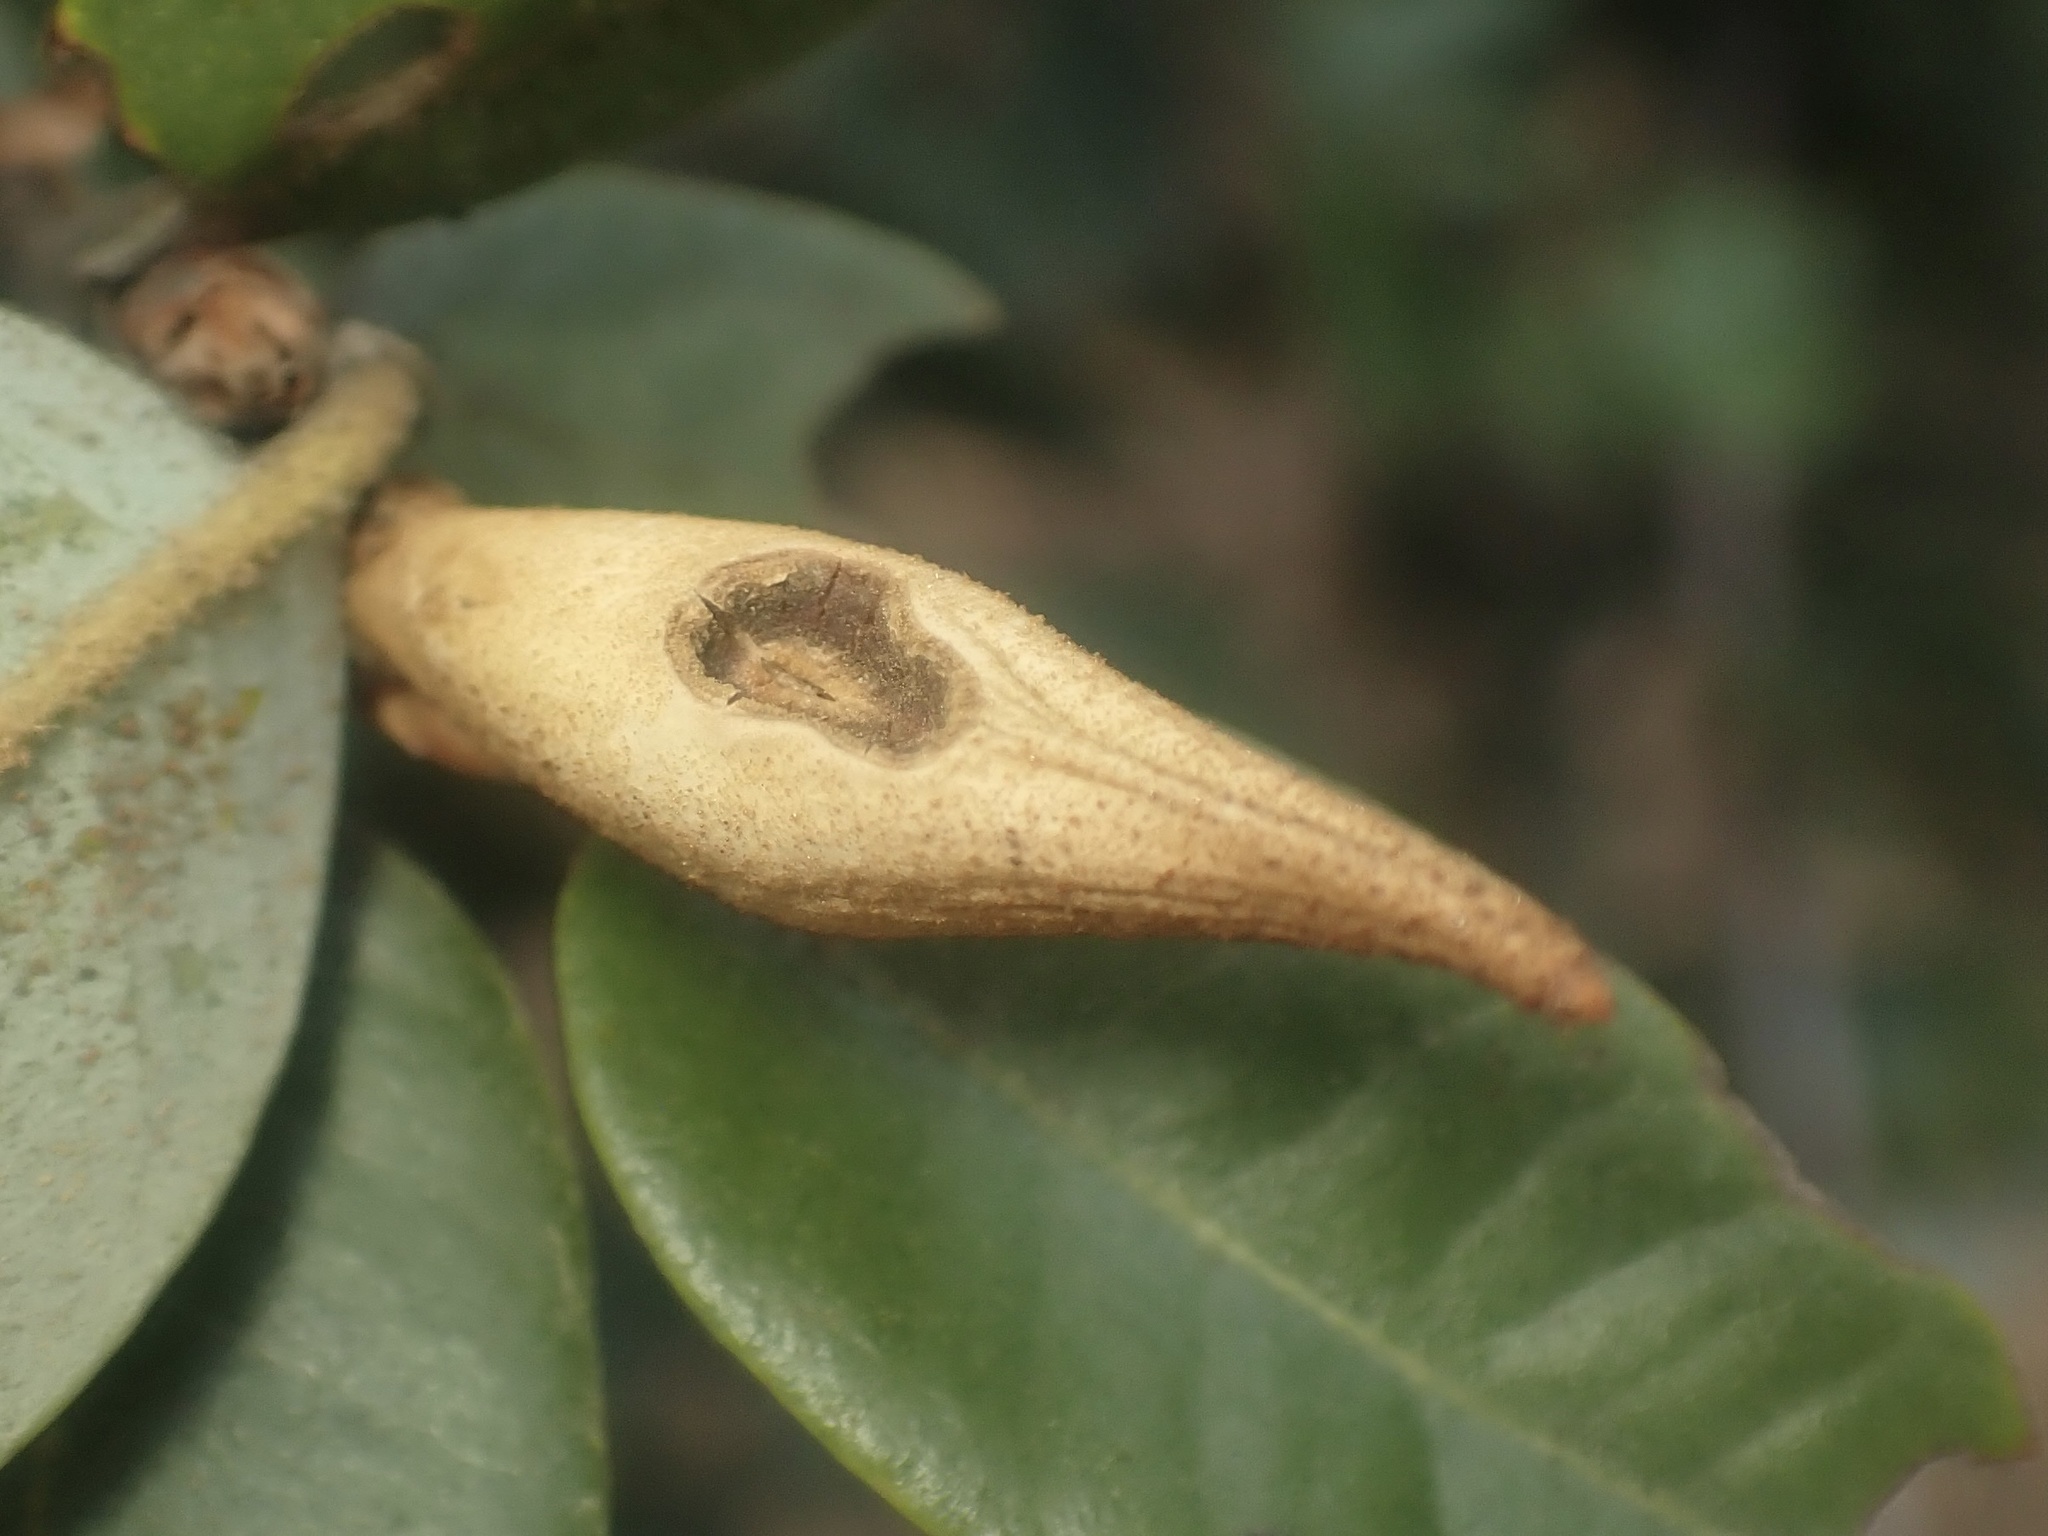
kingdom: Animalia
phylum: Arthropoda
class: Insecta
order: Hymenoptera
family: Cynipidae
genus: Heteroecus
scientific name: Heteroecus pacificus
